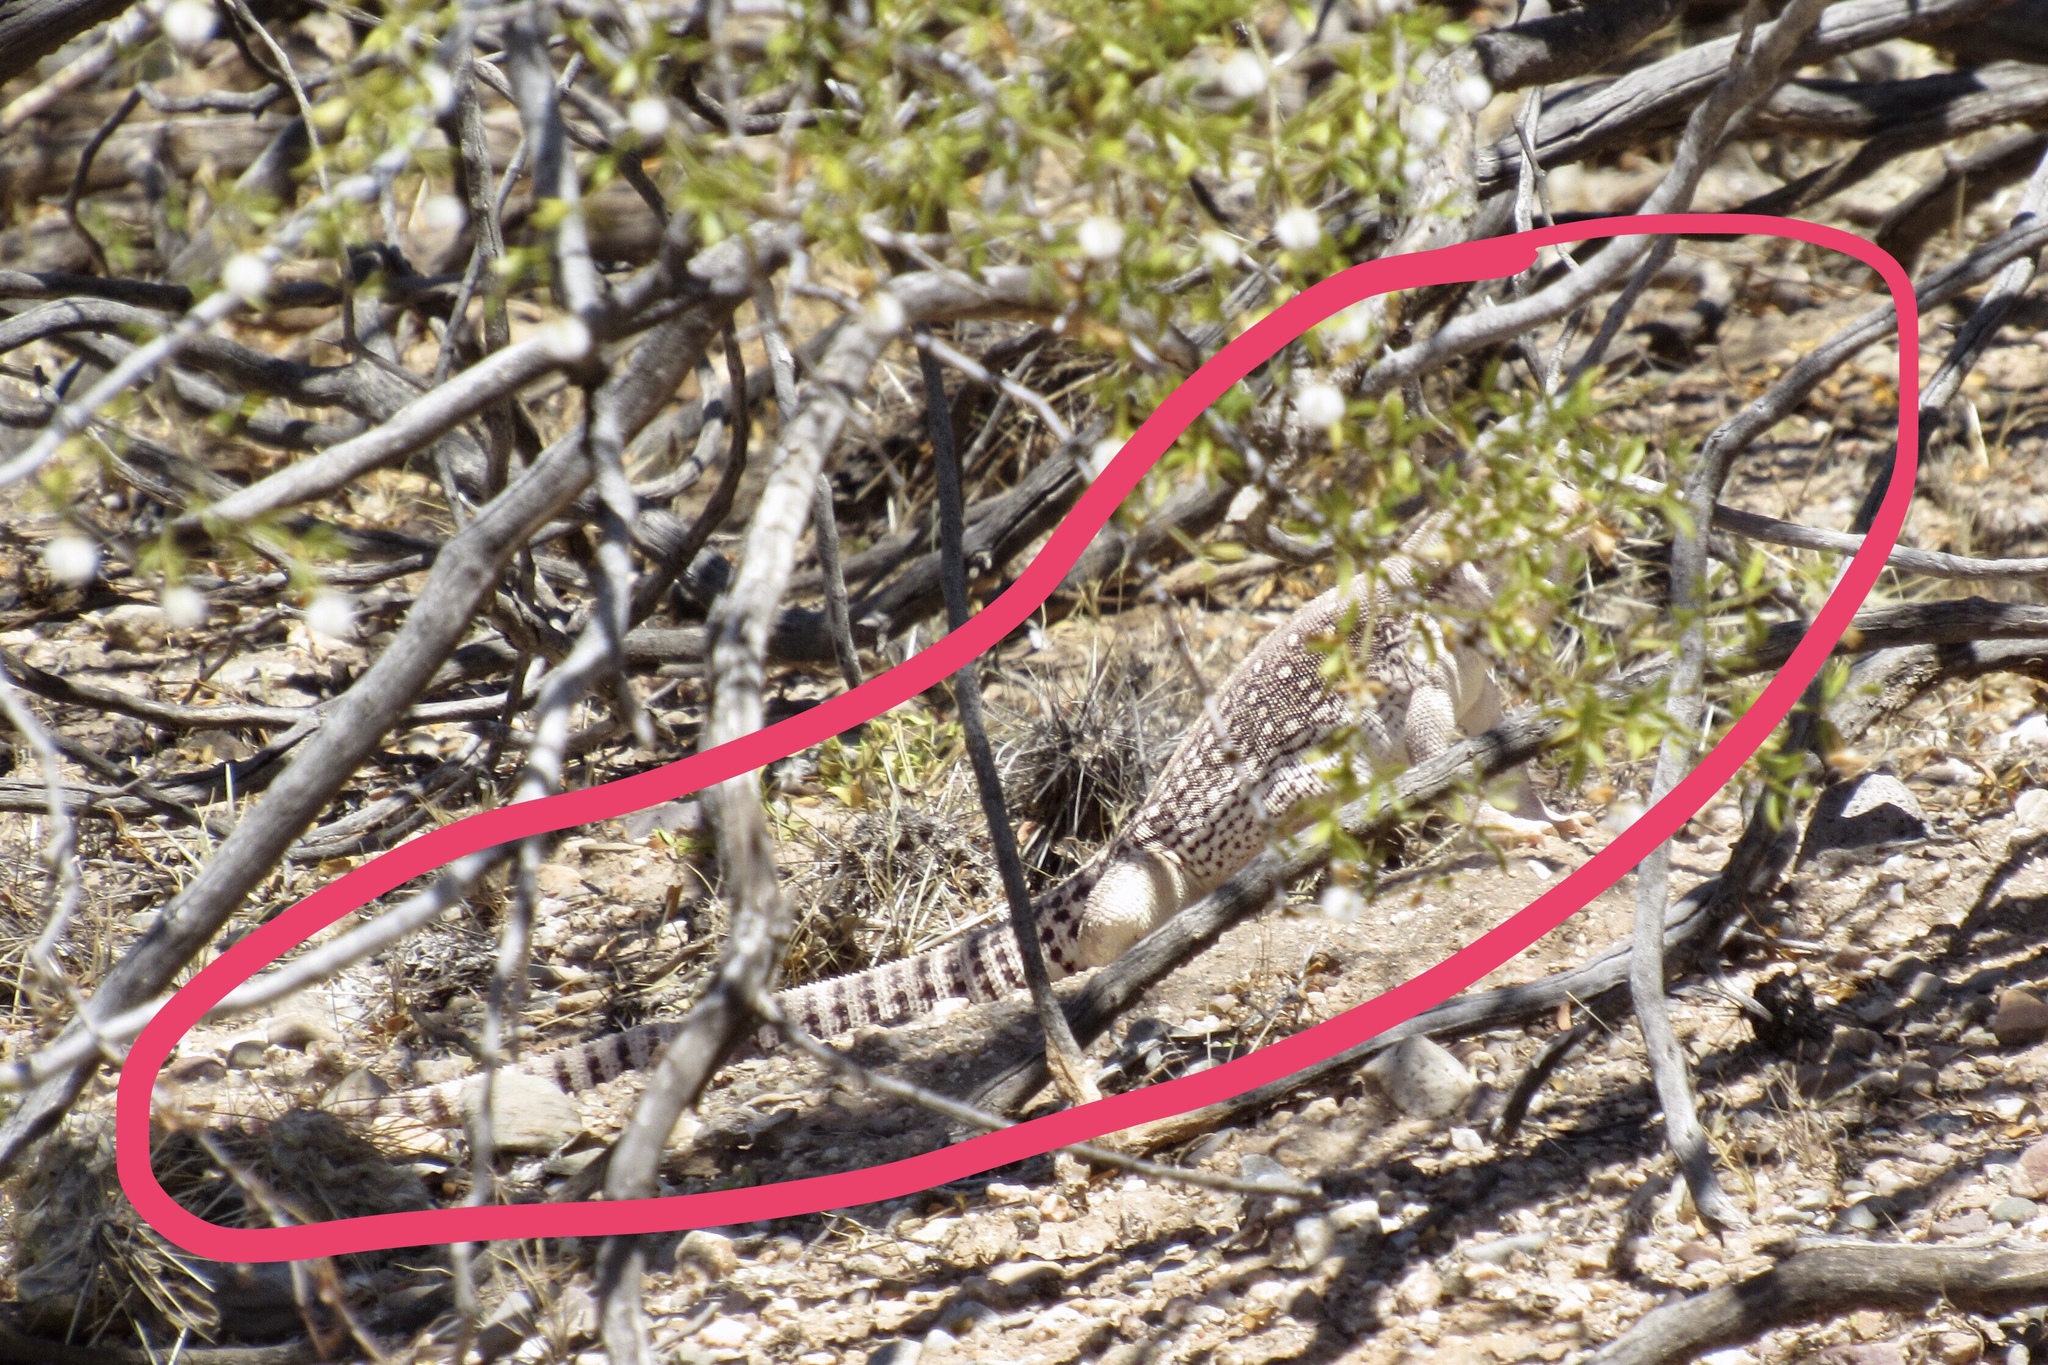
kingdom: Animalia
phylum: Chordata
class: Squamata
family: Iguanidae
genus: Dipsosaurus
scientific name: Dipsosaurus dorsalis
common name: Desert iguana
